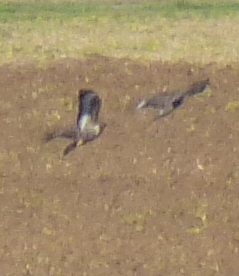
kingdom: Animalia
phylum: Chordata
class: Aves
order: Accipitriformes
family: Accipitridae
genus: Buteo
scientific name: Buteo buteo
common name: Common buzzard
